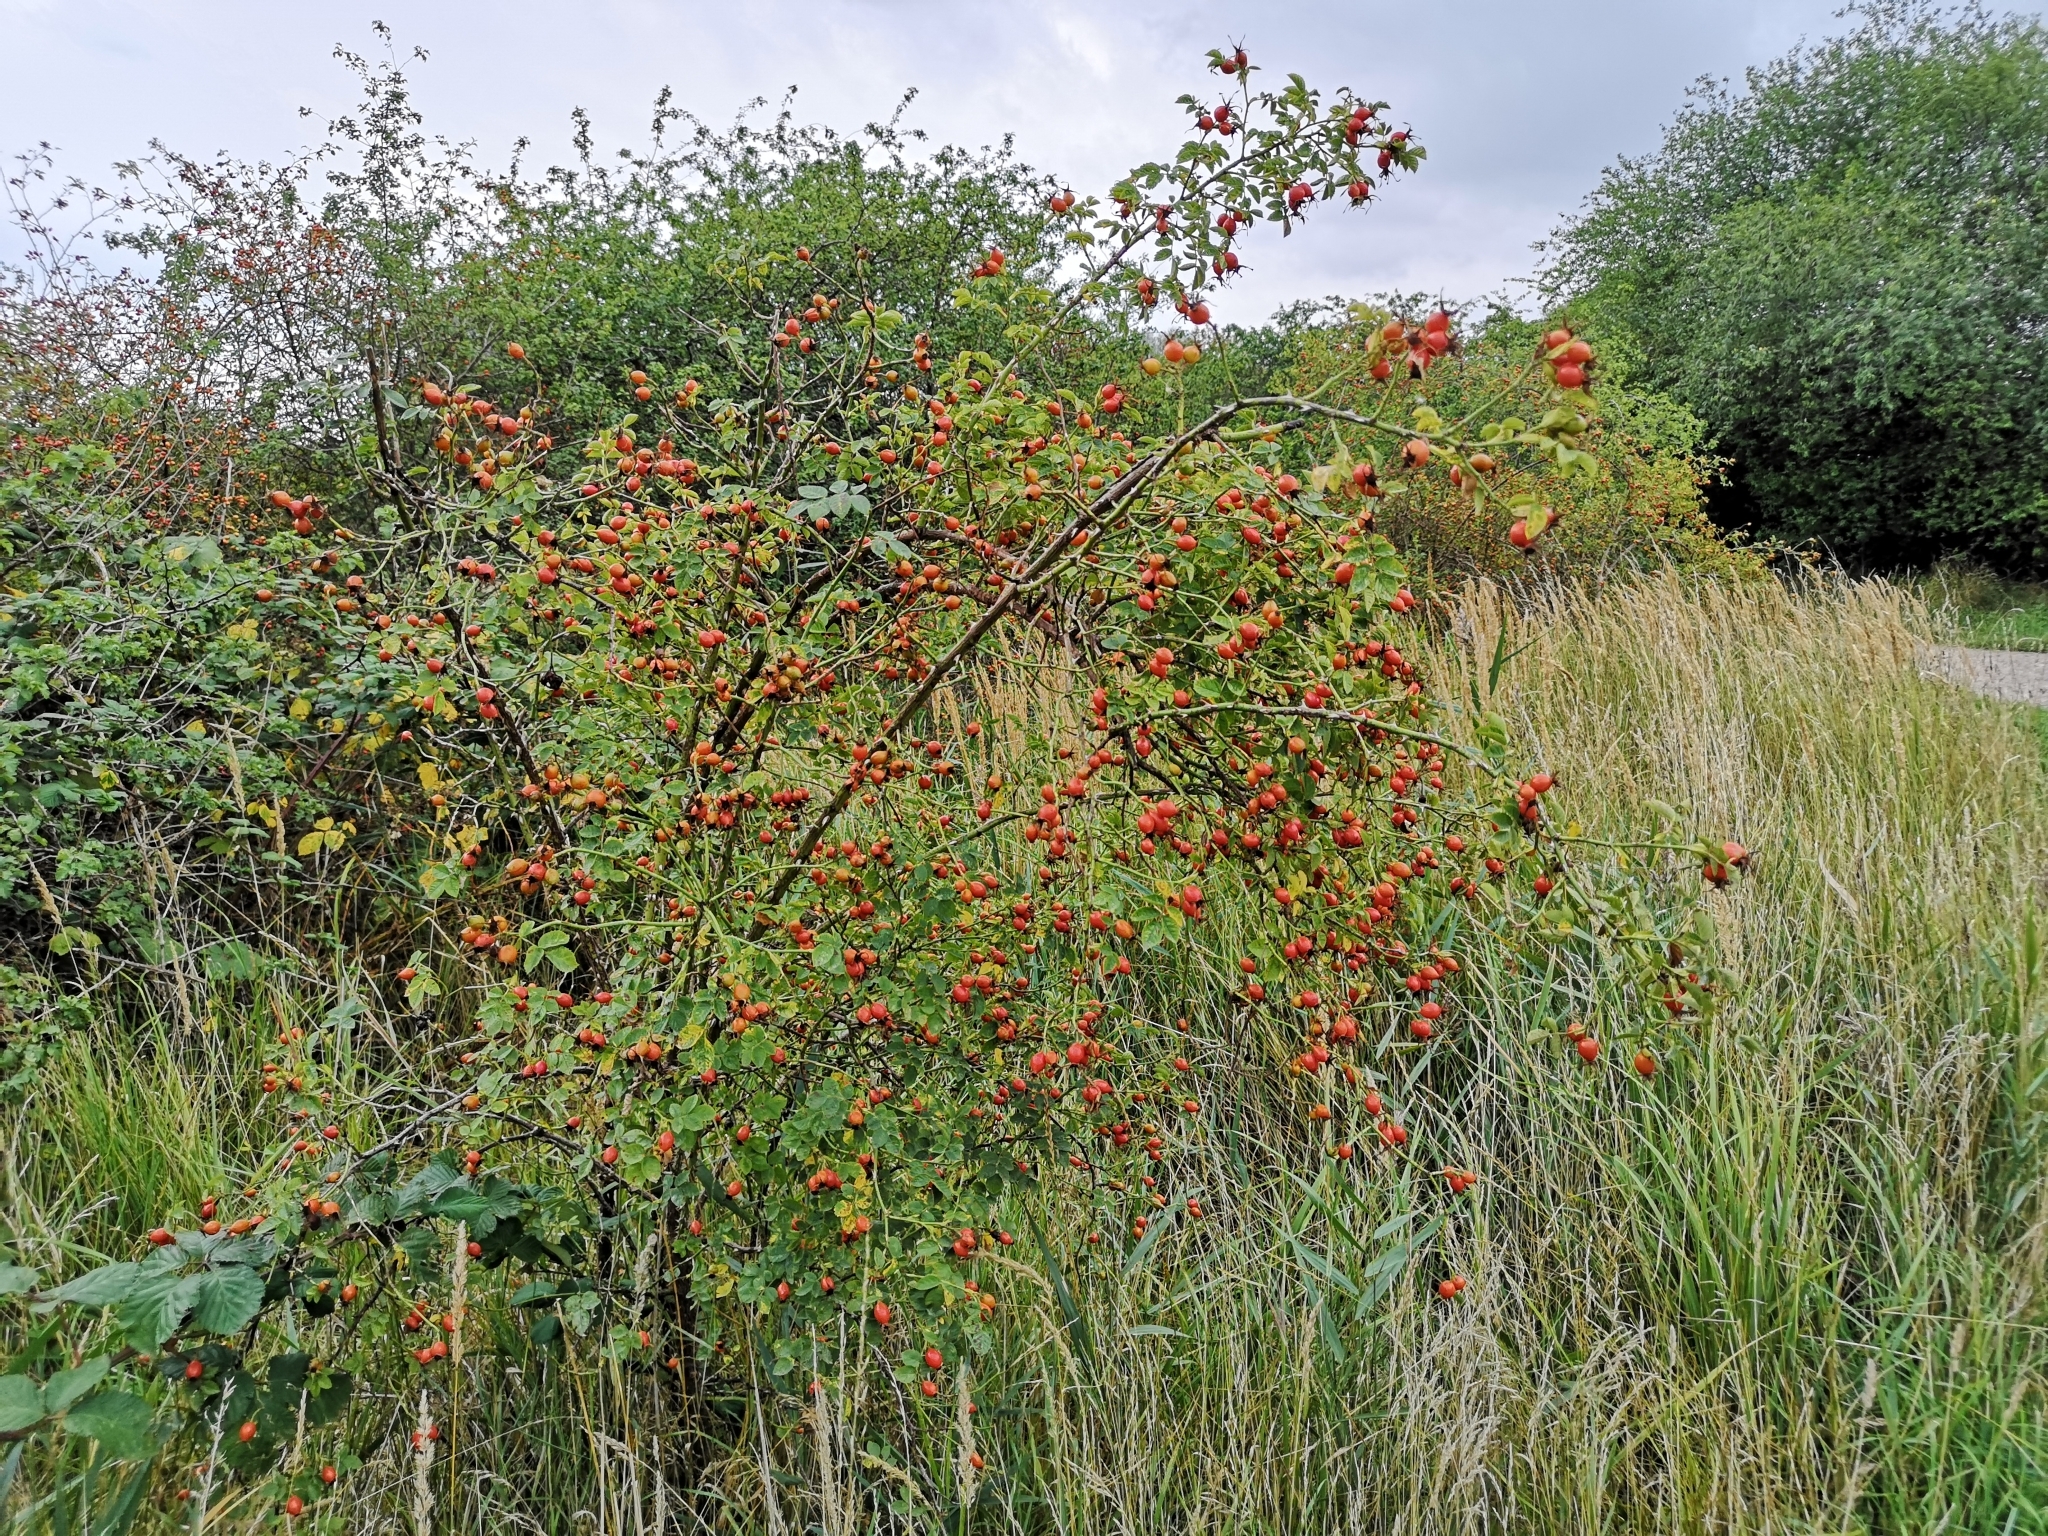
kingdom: Plantae
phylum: Tracheophyta
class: Magnoliopsida
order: Rosales
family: Rosaceae
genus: Rosa
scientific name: Rosa rubiginosa
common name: Sweet-briar
